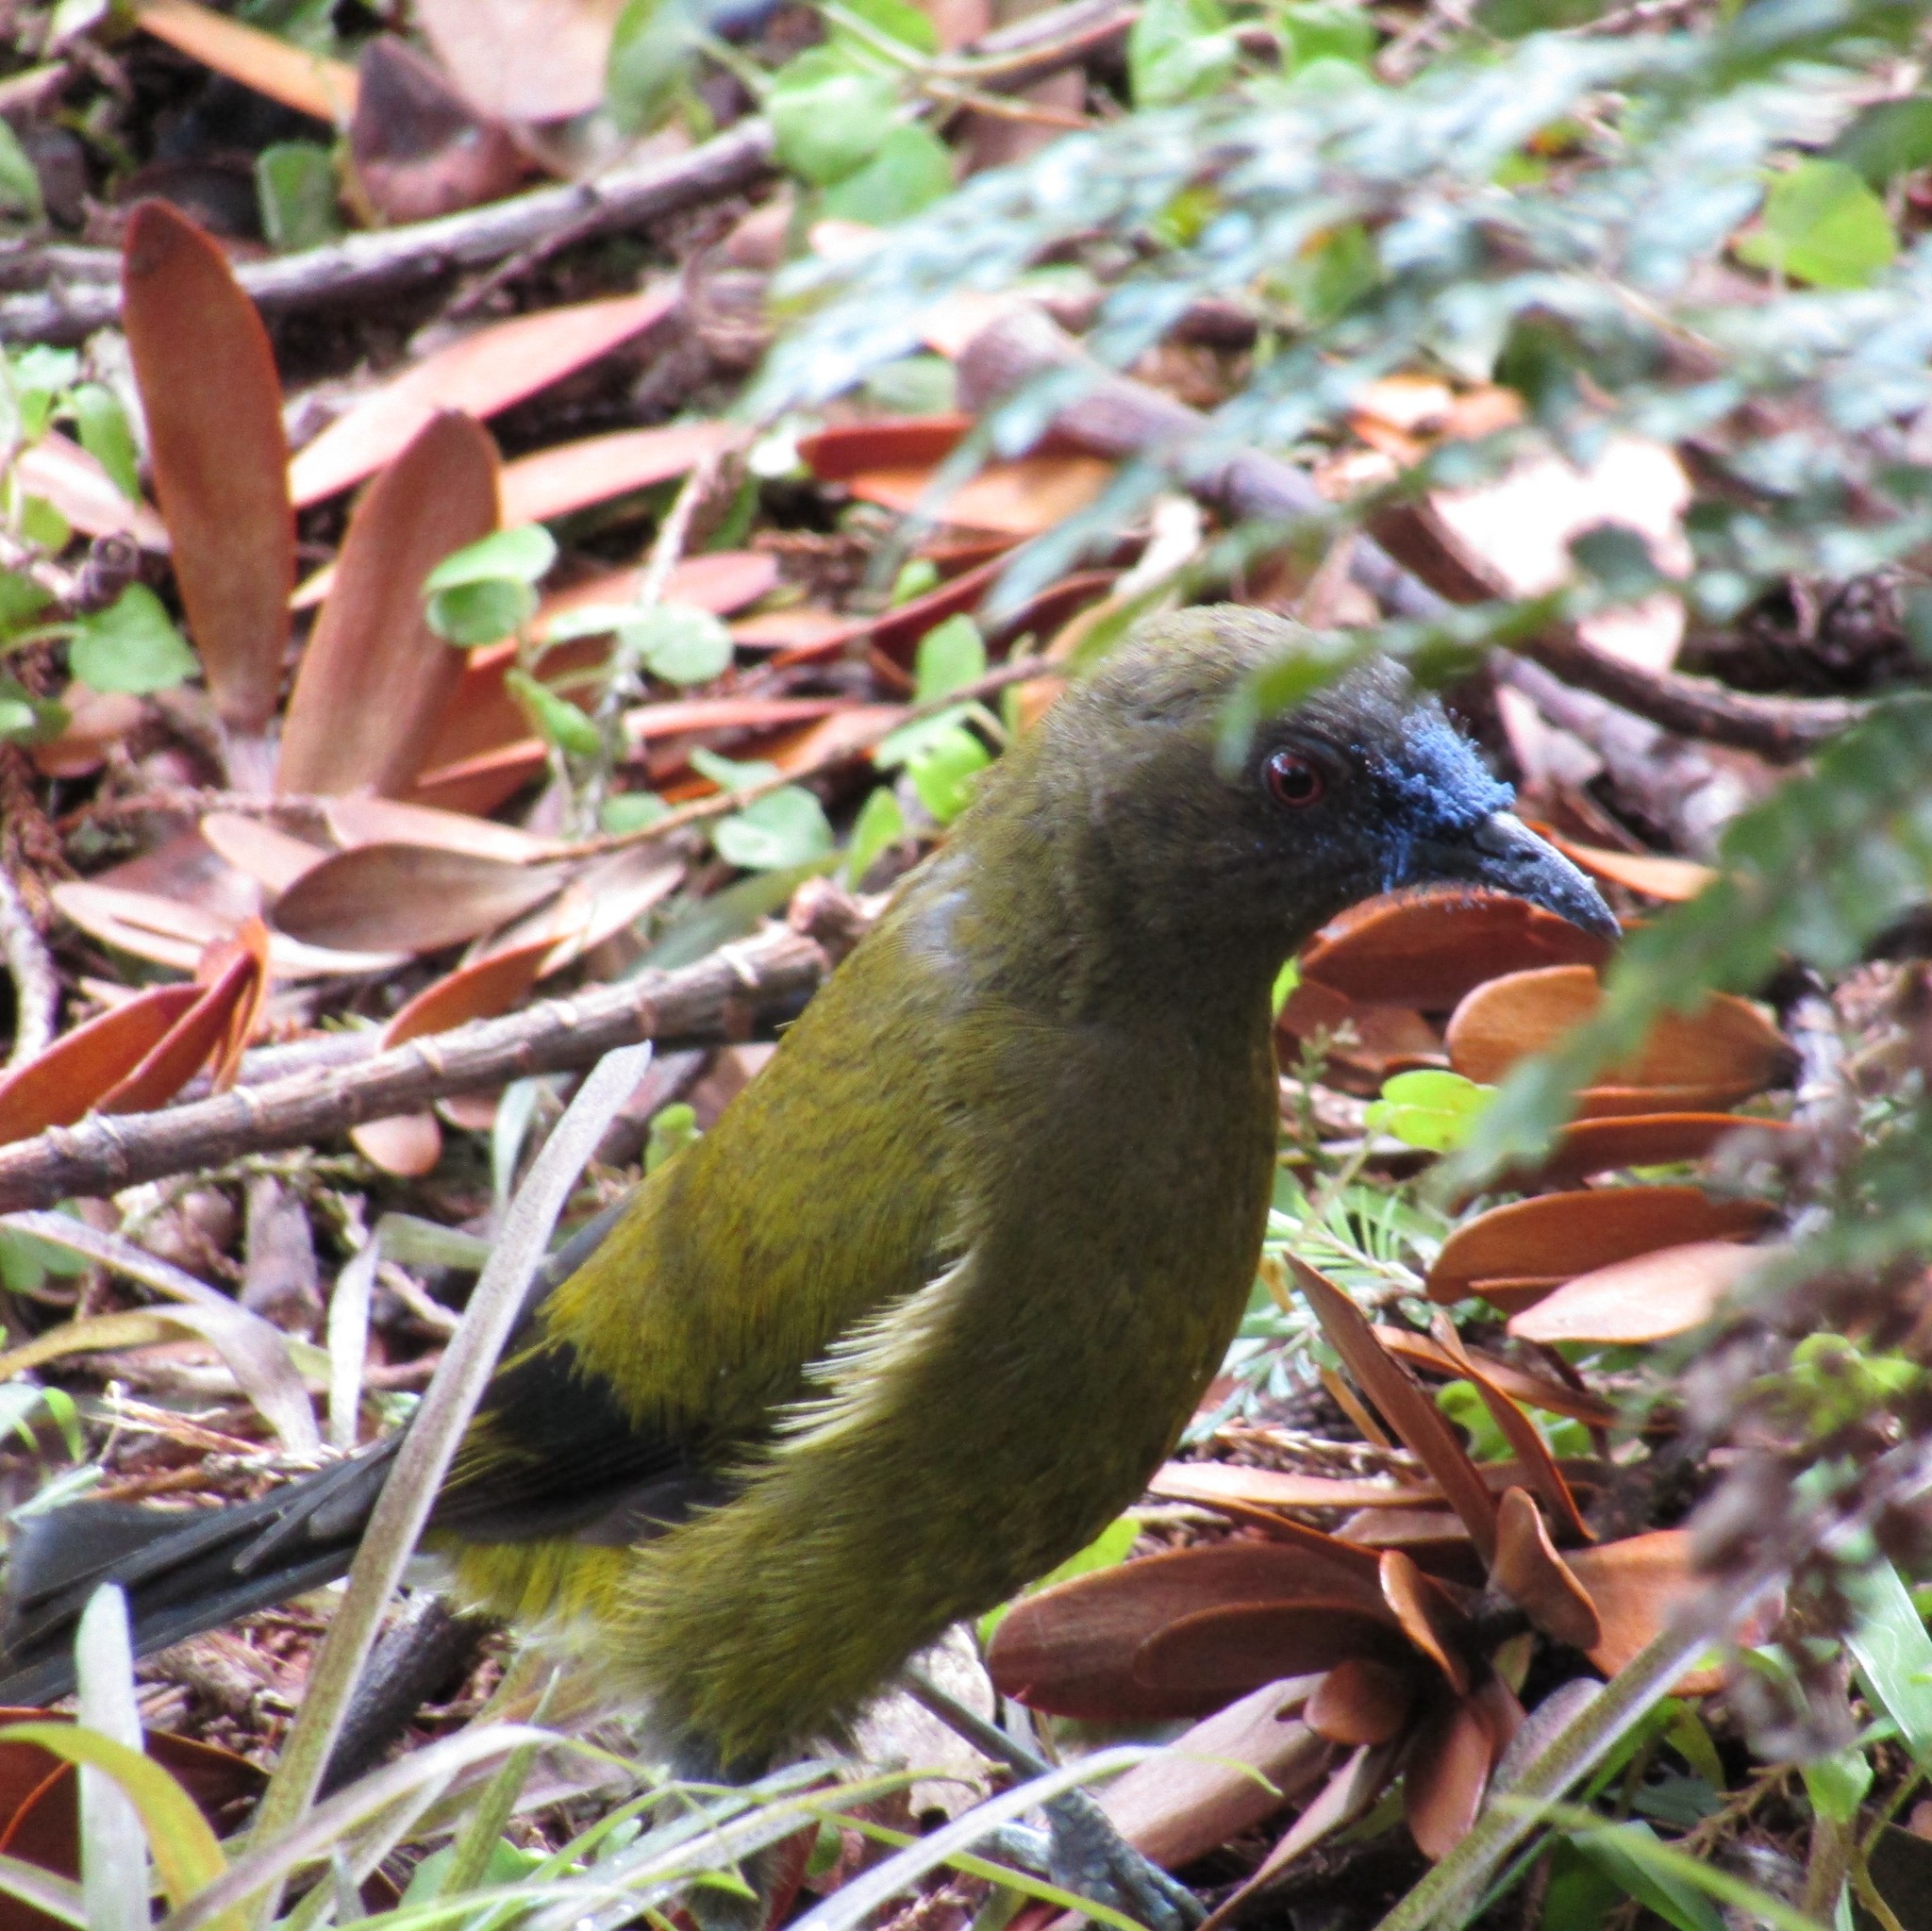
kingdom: Animalia
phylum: Chordata
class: Aves
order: Passeriformes
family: Meliphagidae
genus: Anthornis
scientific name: Anthornis melanura
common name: New zealand bellbird
